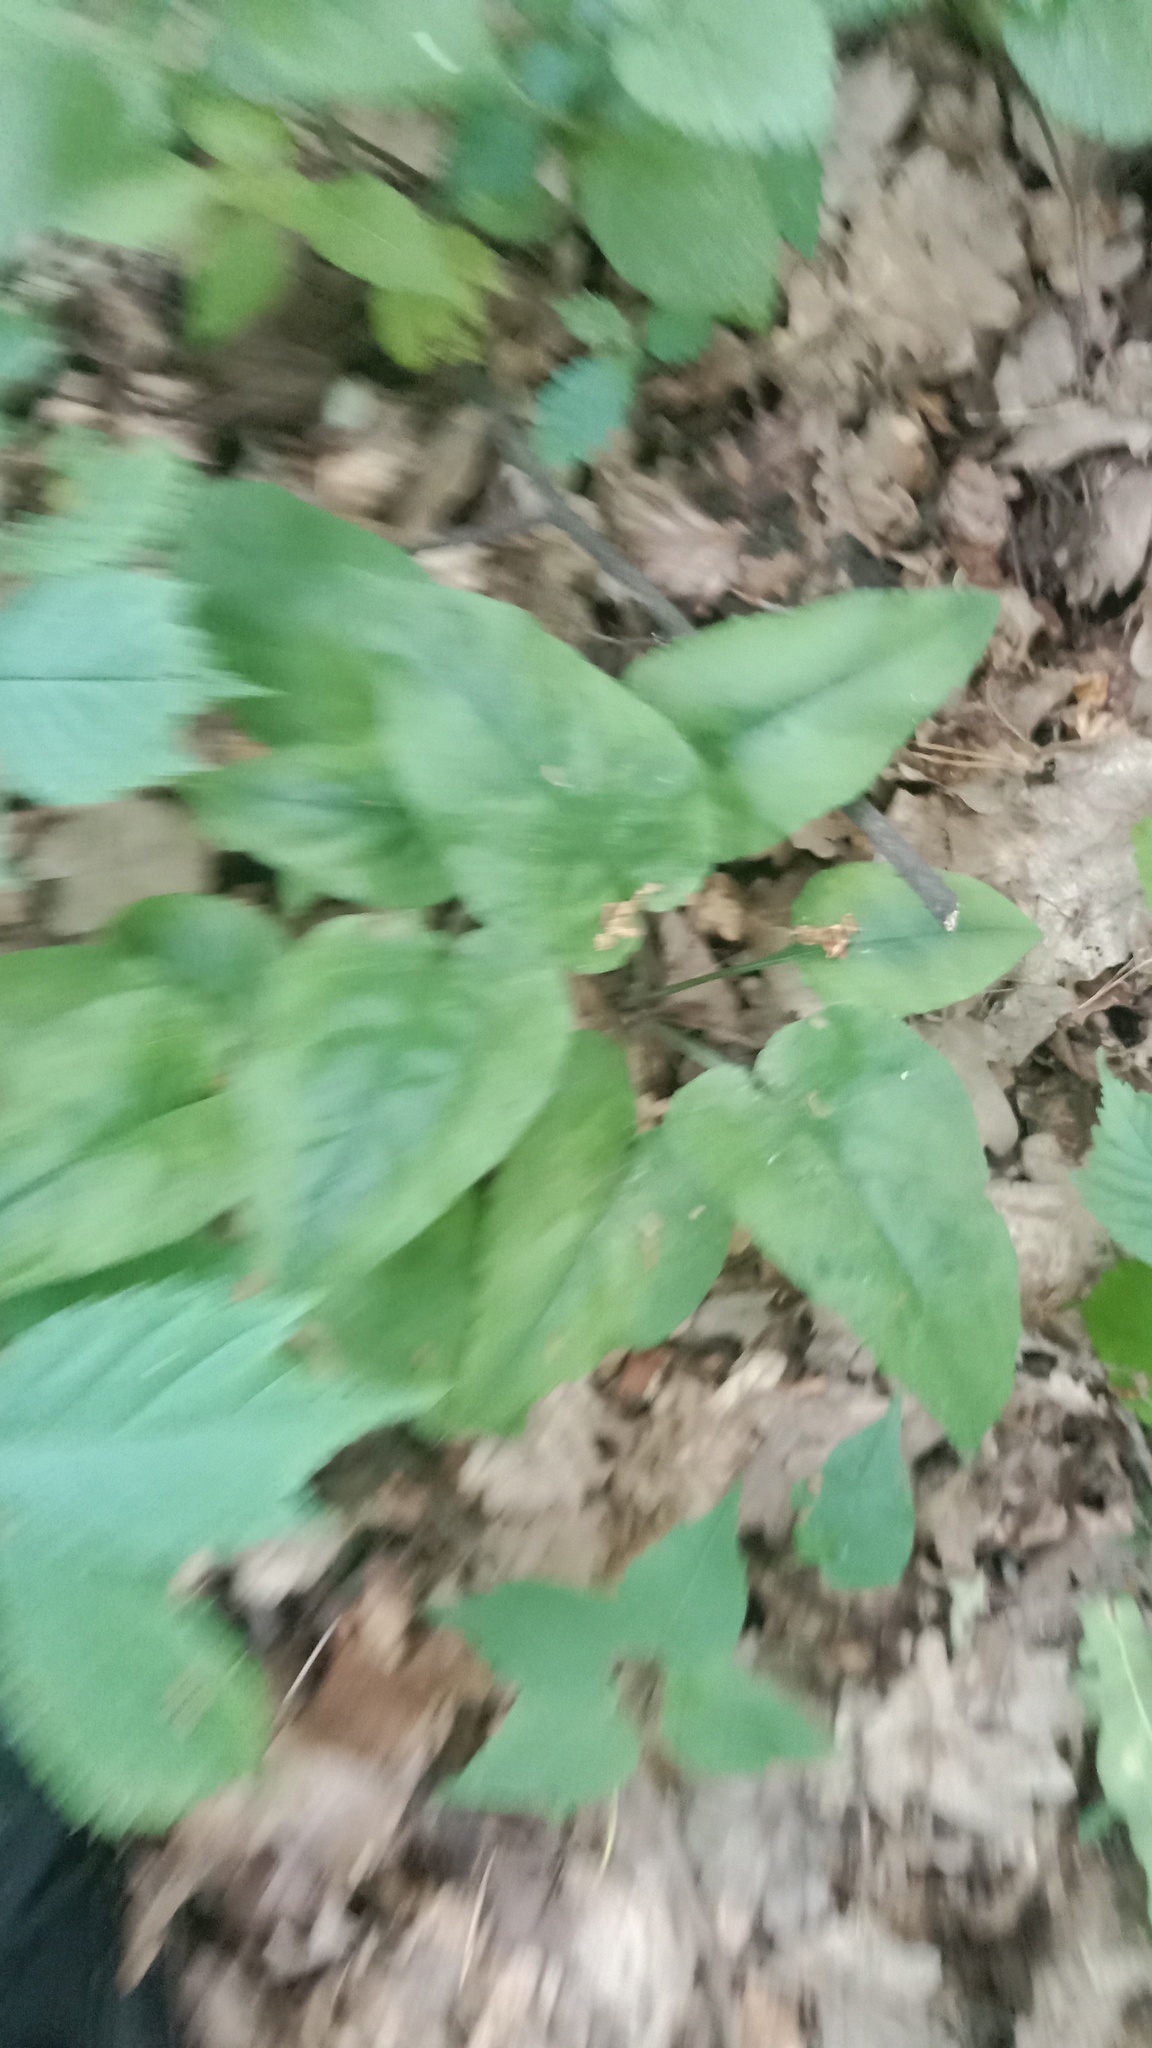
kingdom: Plantae
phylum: Tracheophyta
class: Magnoliopsida
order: Boraginales
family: Boraginaceae
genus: Pulmonaria
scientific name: Pulmonaria obscura
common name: Suffolk lungwort
